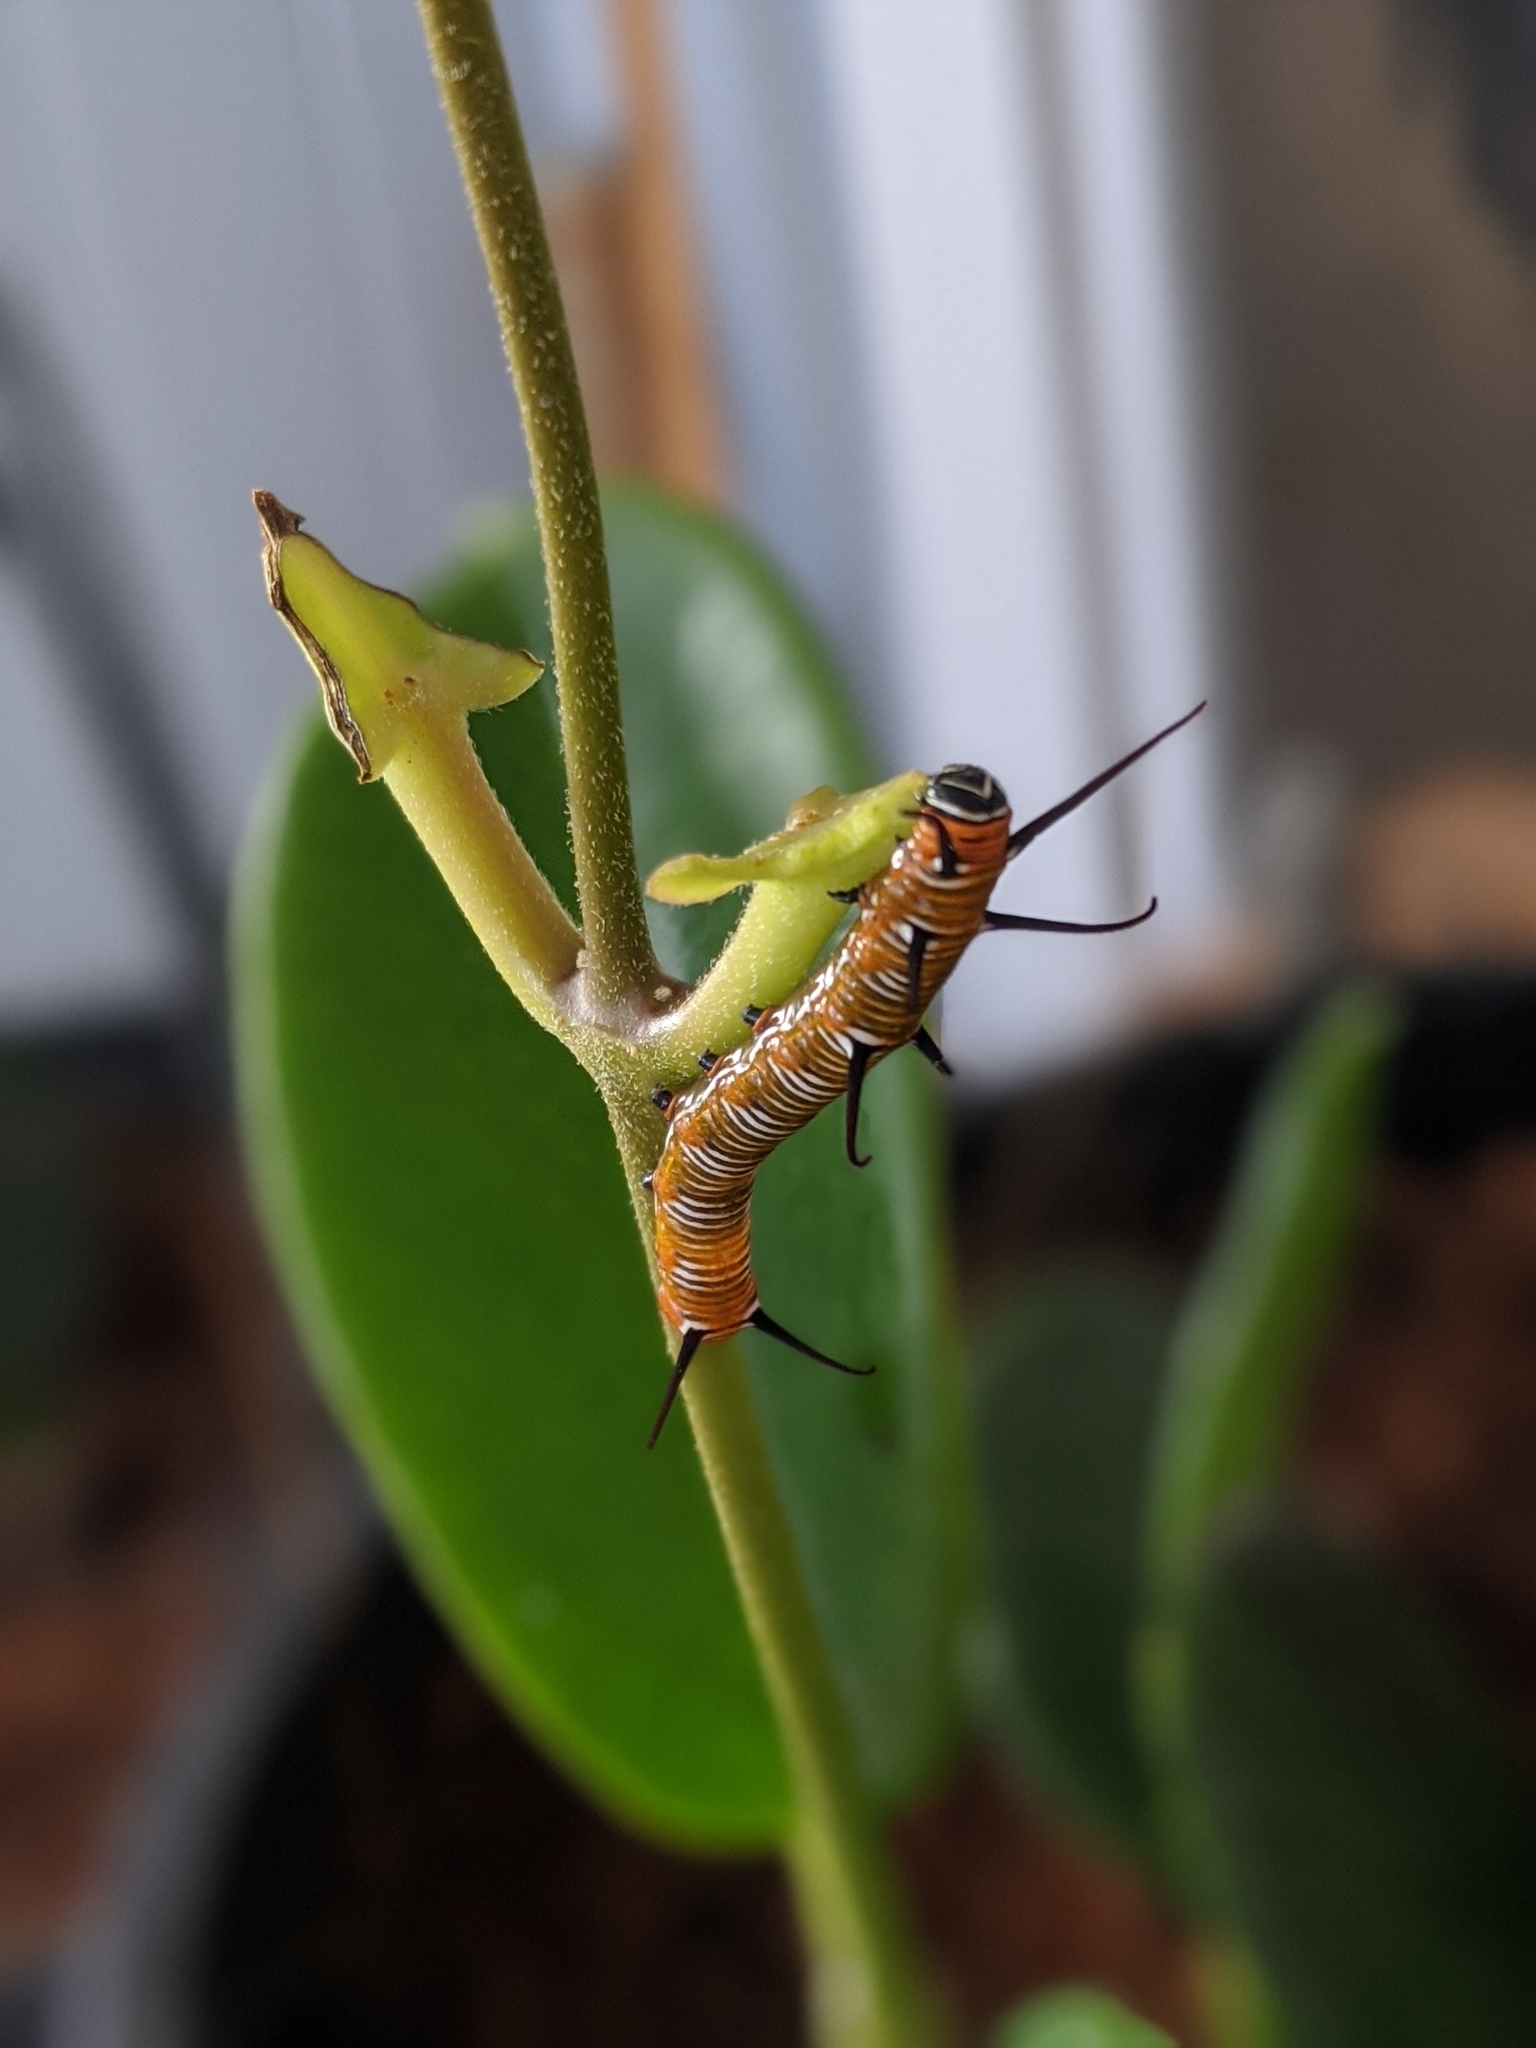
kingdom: Animalia
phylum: Arthropoda
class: Insecta
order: Lepidoptera
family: Nymphalidae
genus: Euploea
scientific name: Euploea core
